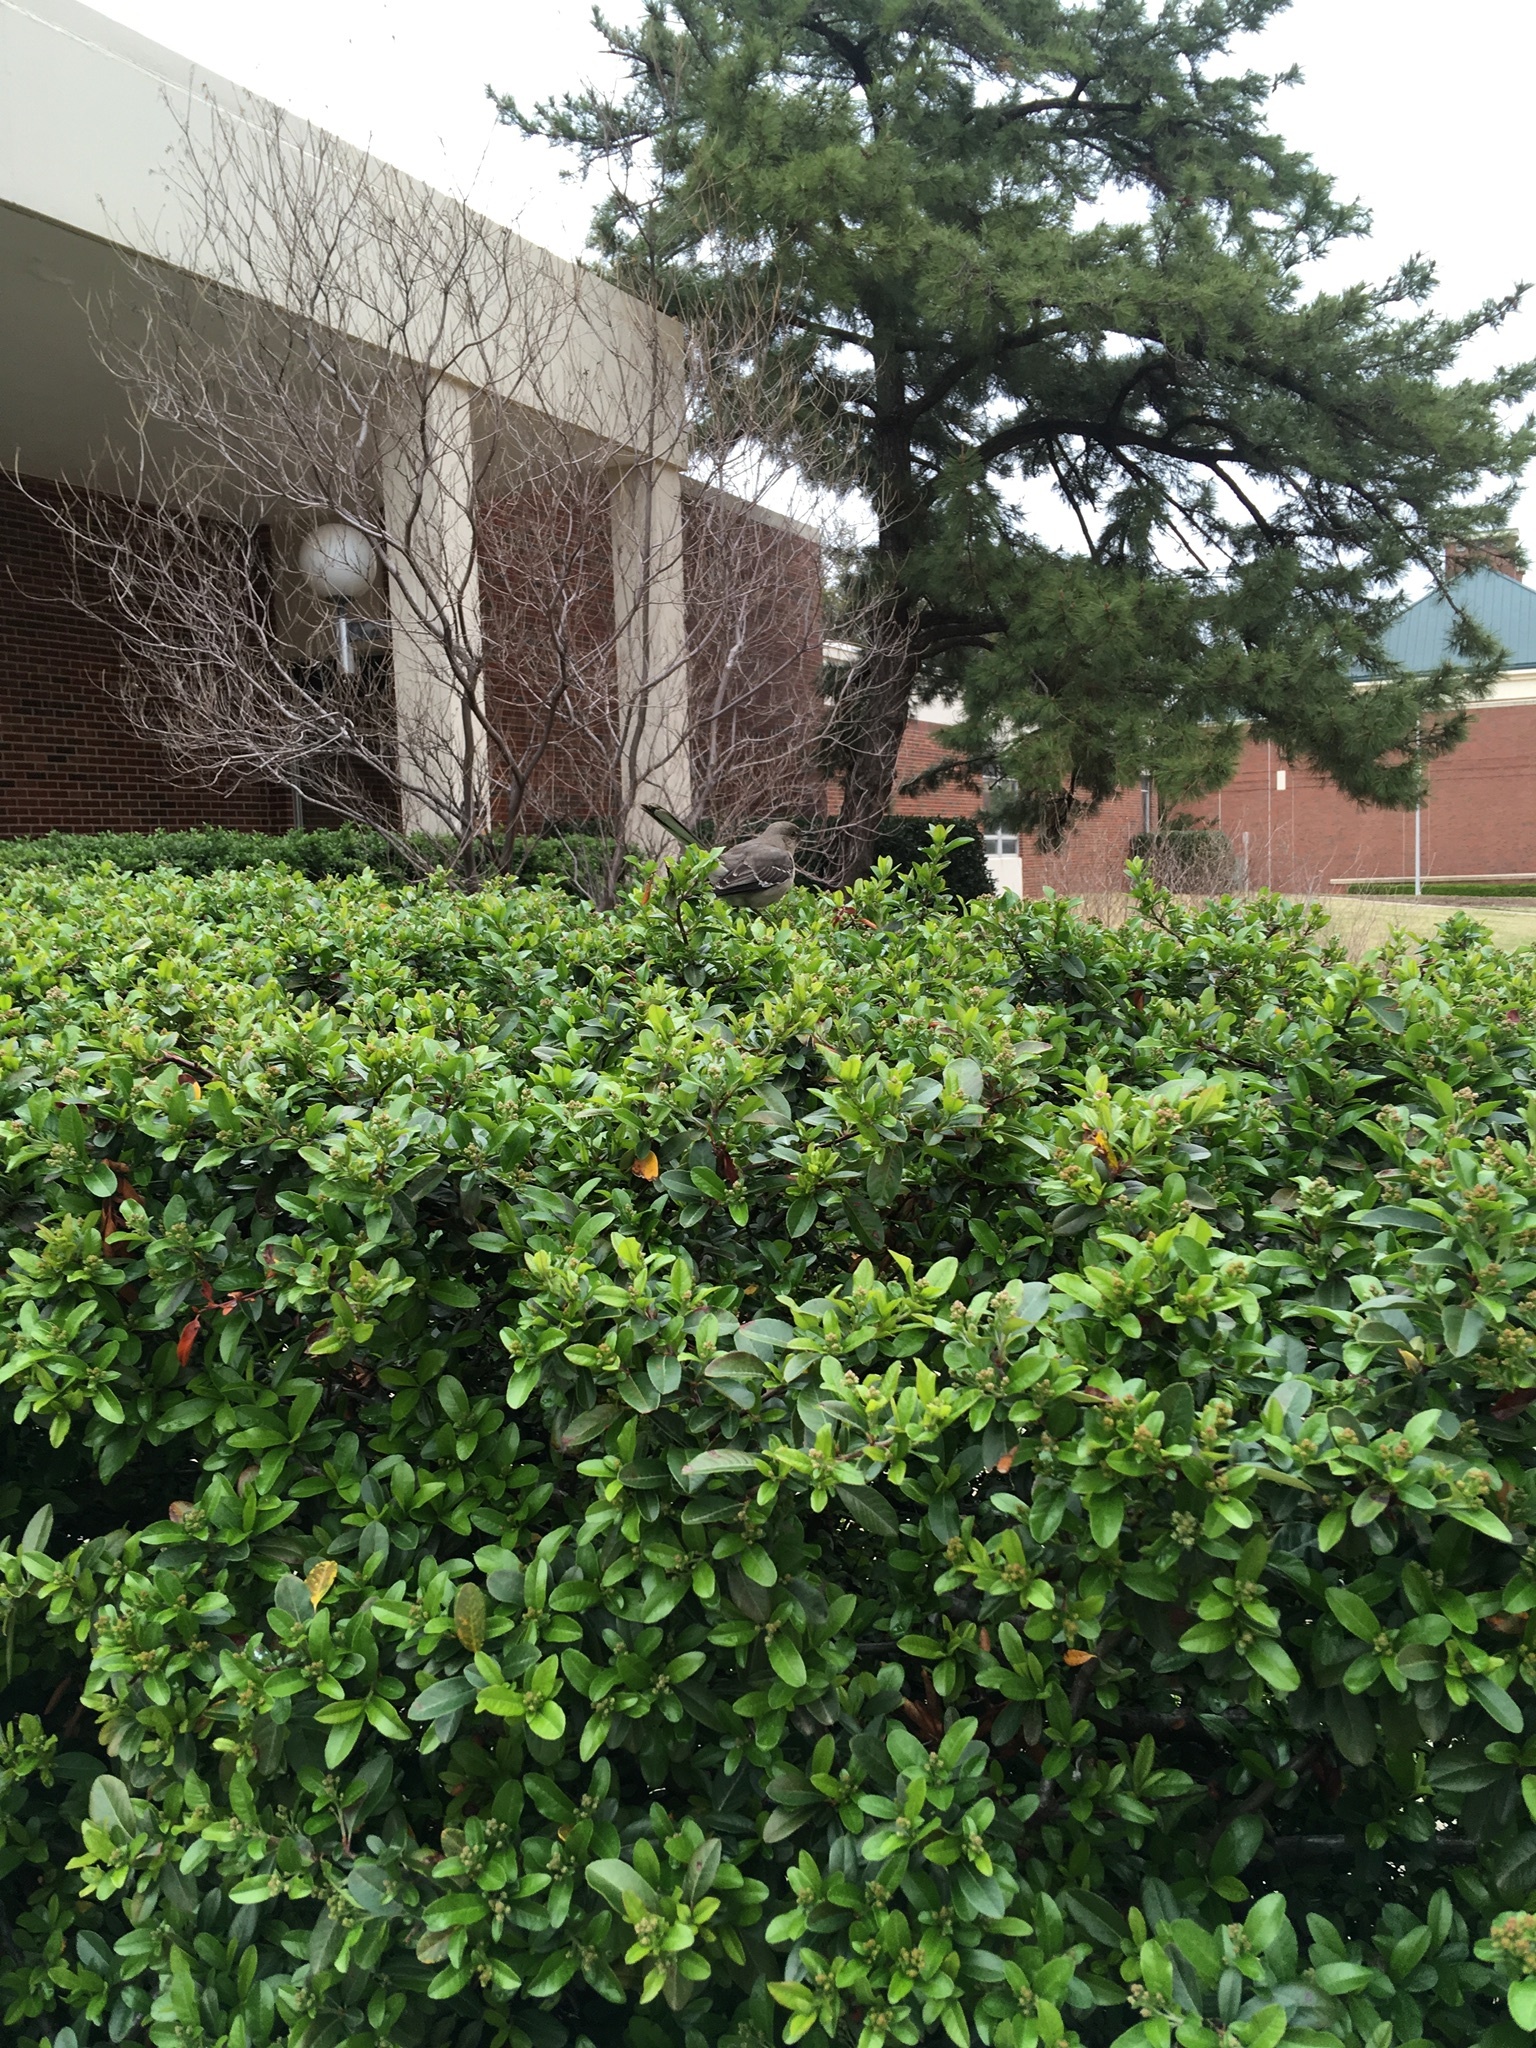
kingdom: Animalia
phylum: Chordata
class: Aves
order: Passeriformes
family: Mimidae
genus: Mimus
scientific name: Mimus polyglottos
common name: Northern mockingbird
